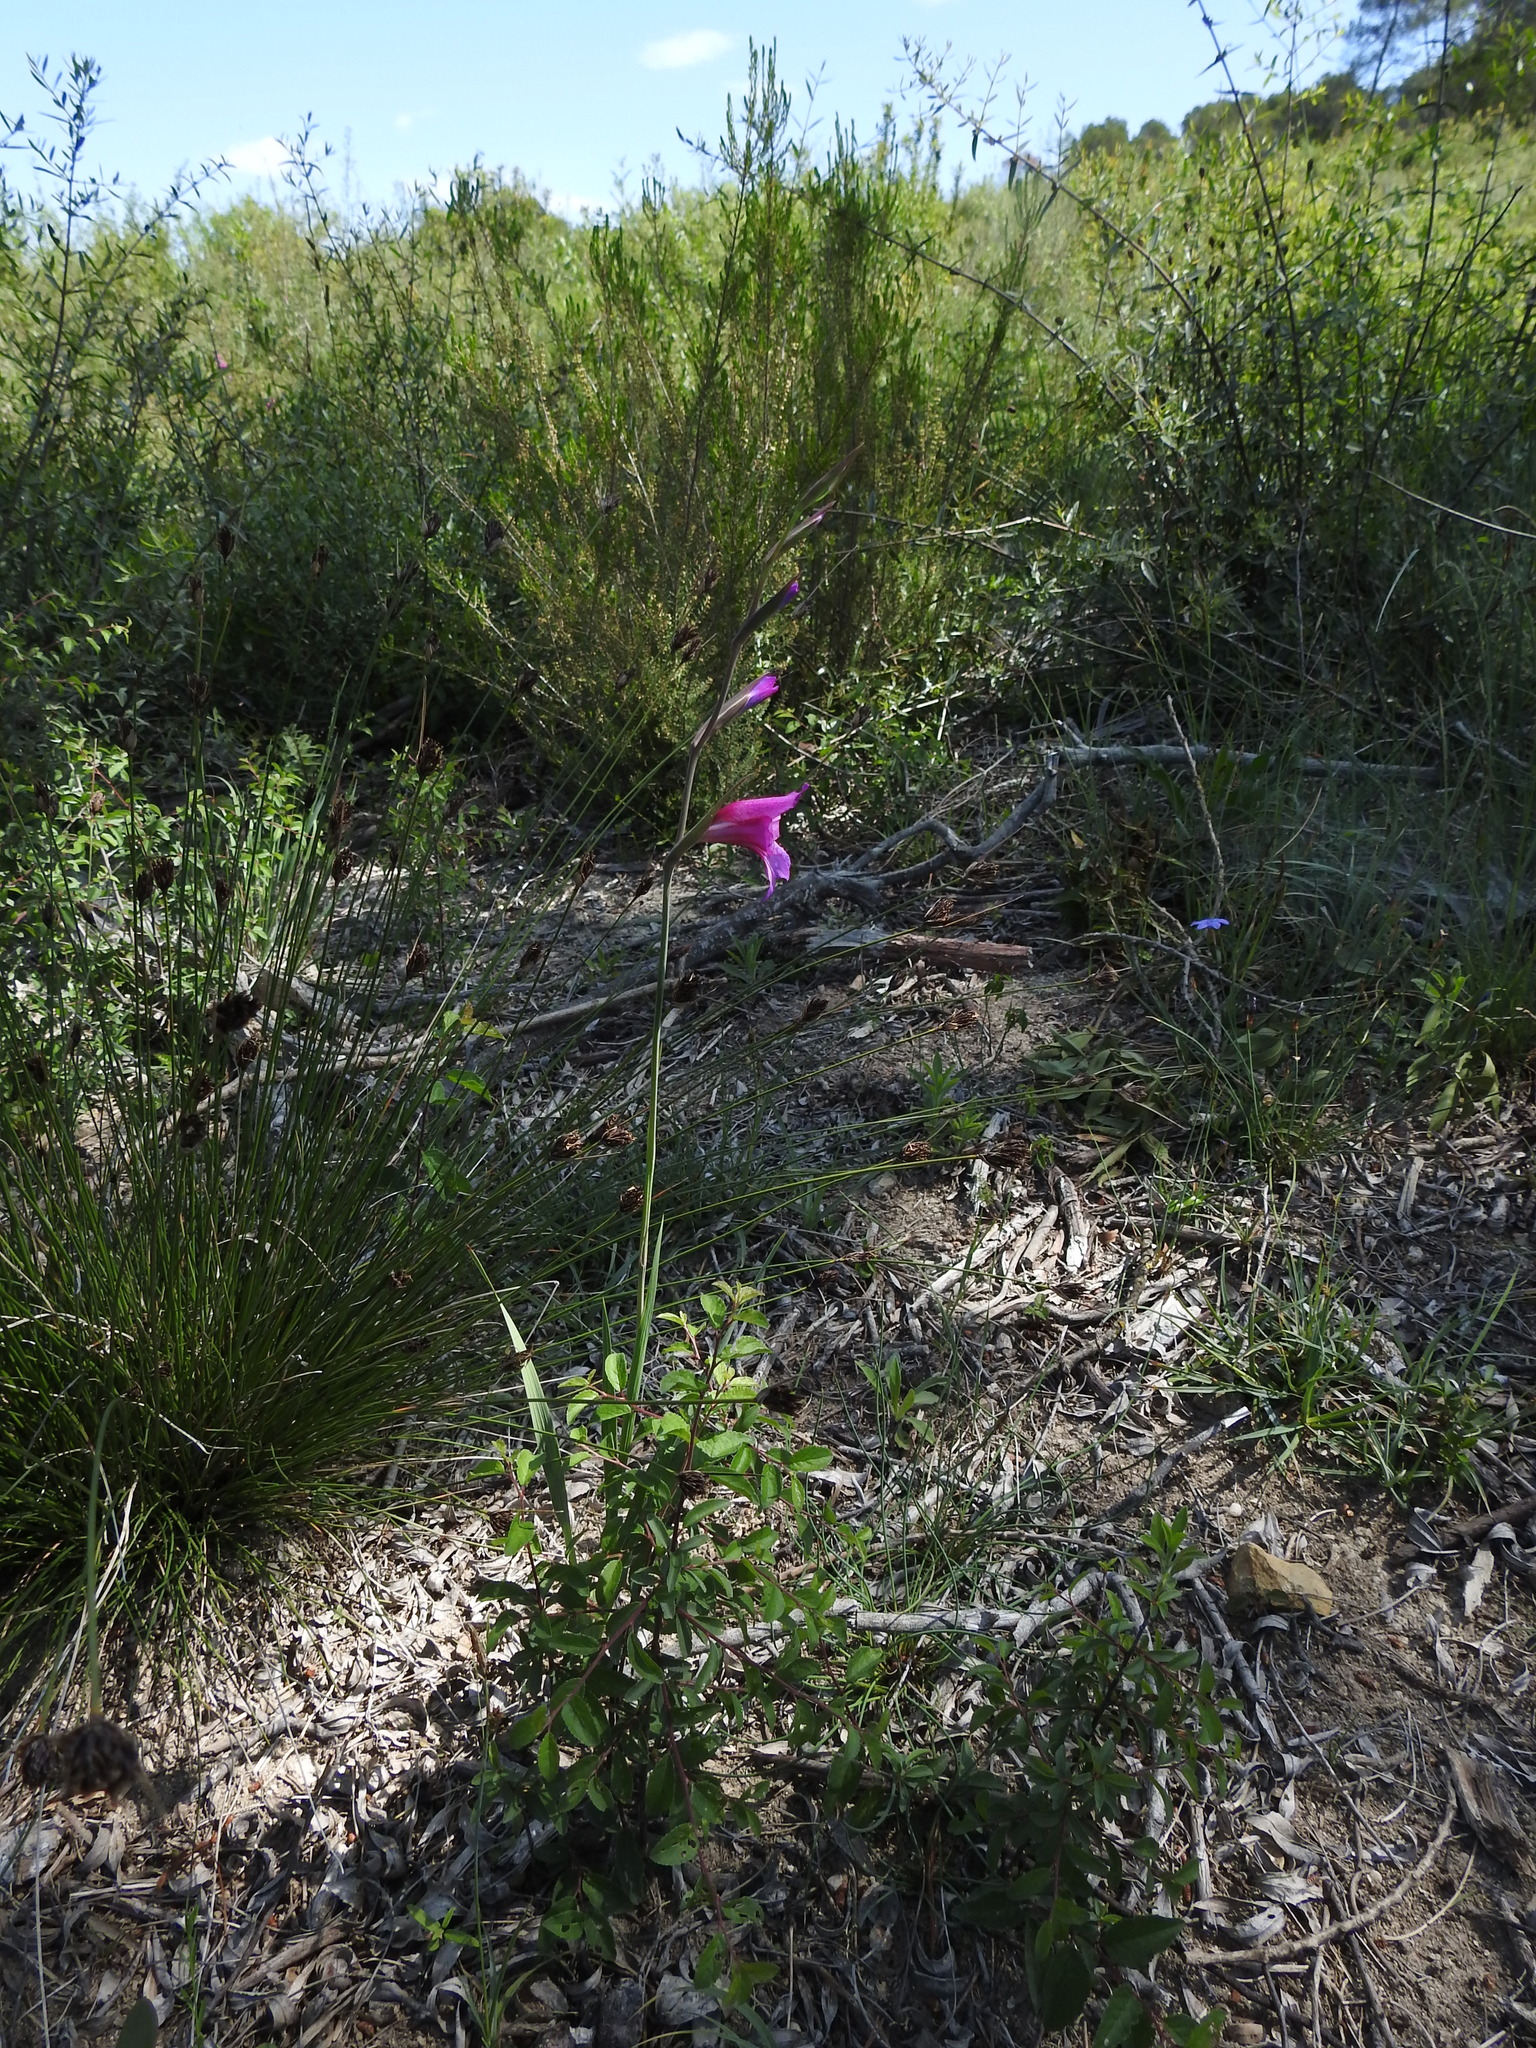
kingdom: Plantae
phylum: Tracheophyta
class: Liliopsida
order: Asparagales
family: Iridaceae
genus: Gladiolus
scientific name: Gladiolus dubius
